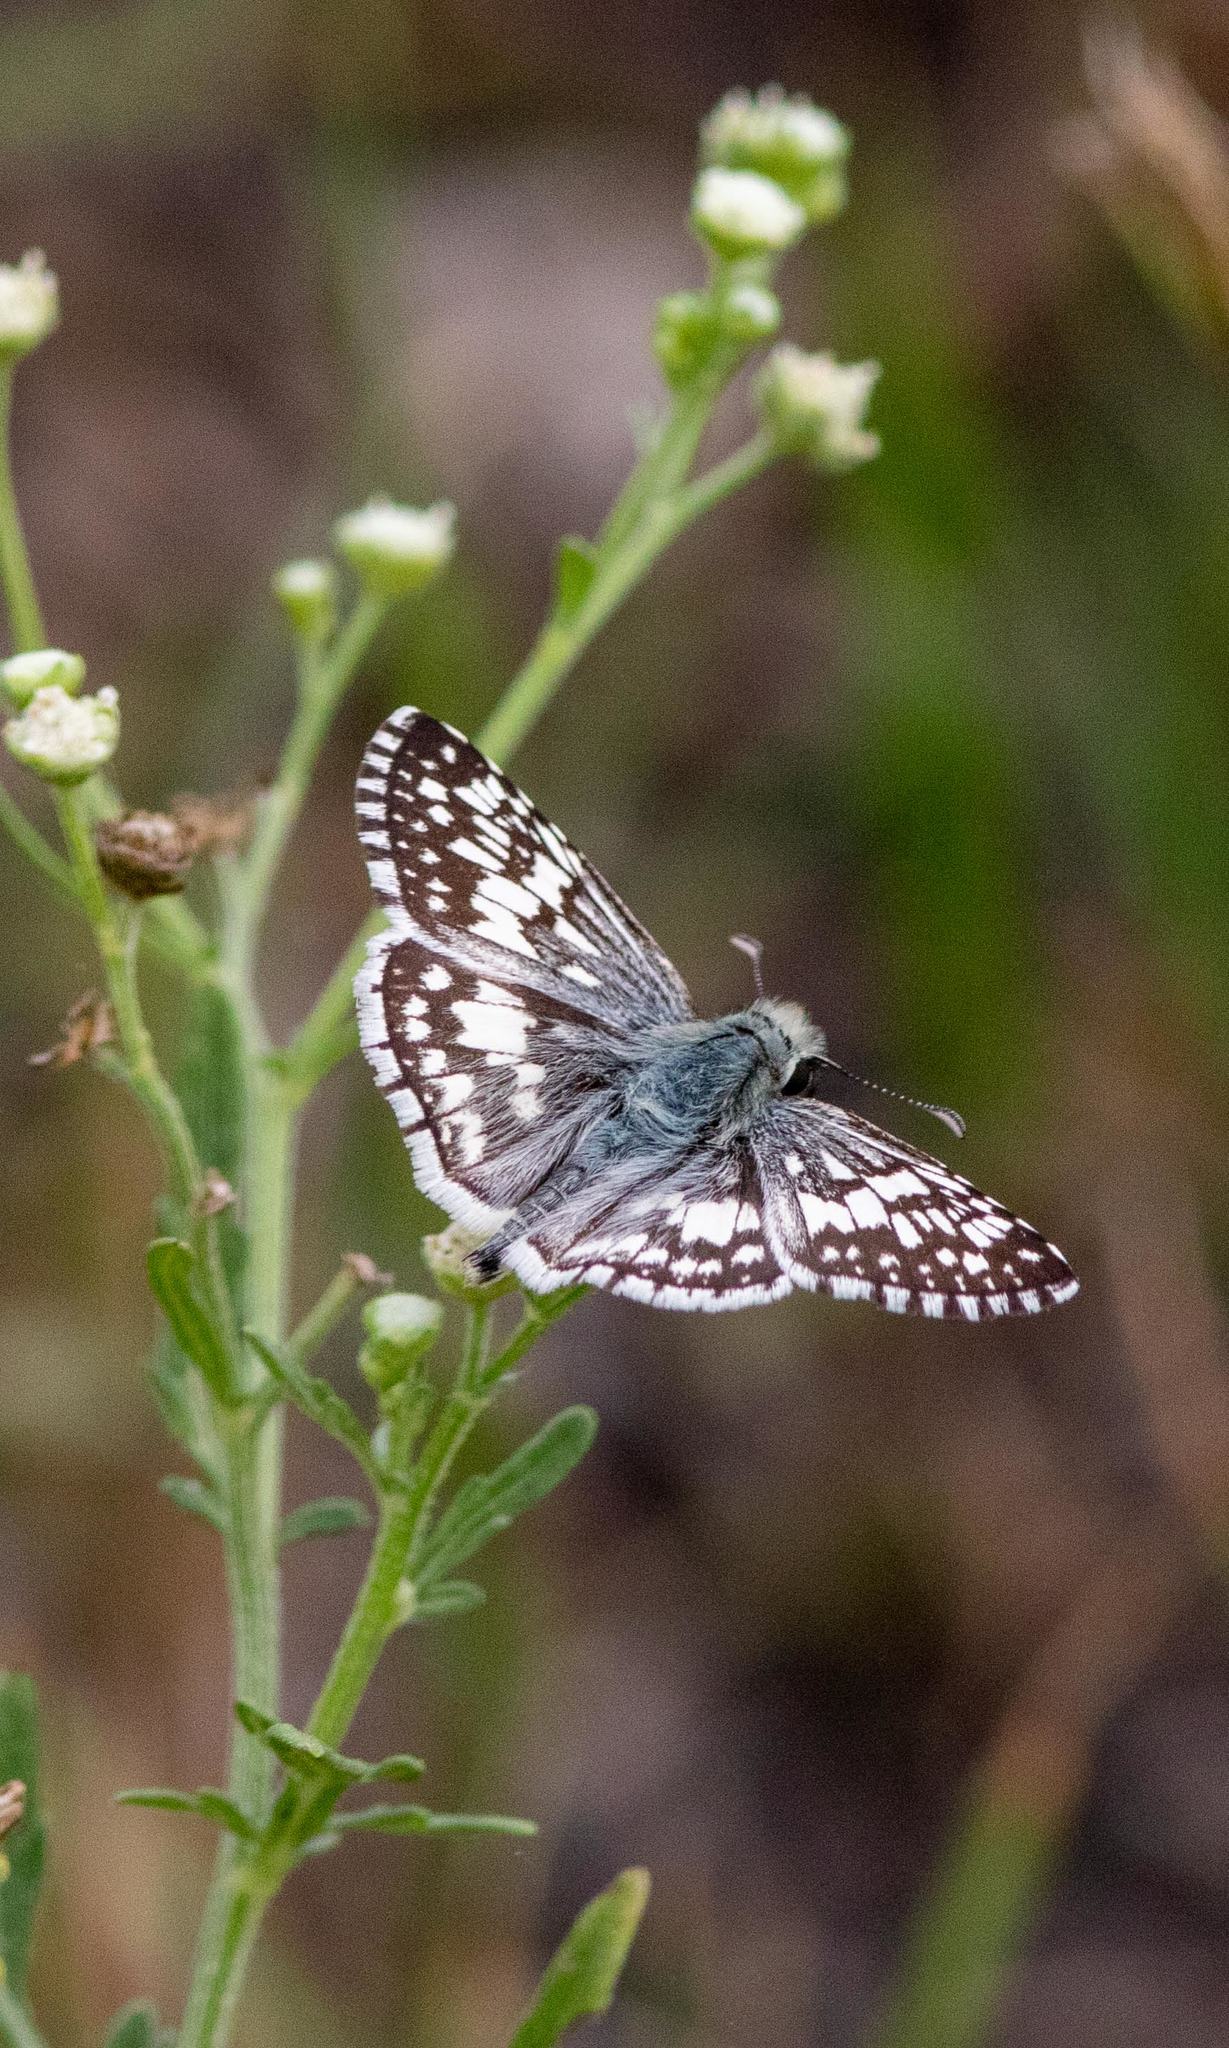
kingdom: Animalia
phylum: Arthropoda
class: Insecta
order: Lepidoptera
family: Hesperiidae
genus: Burnsius
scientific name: Burnsius
